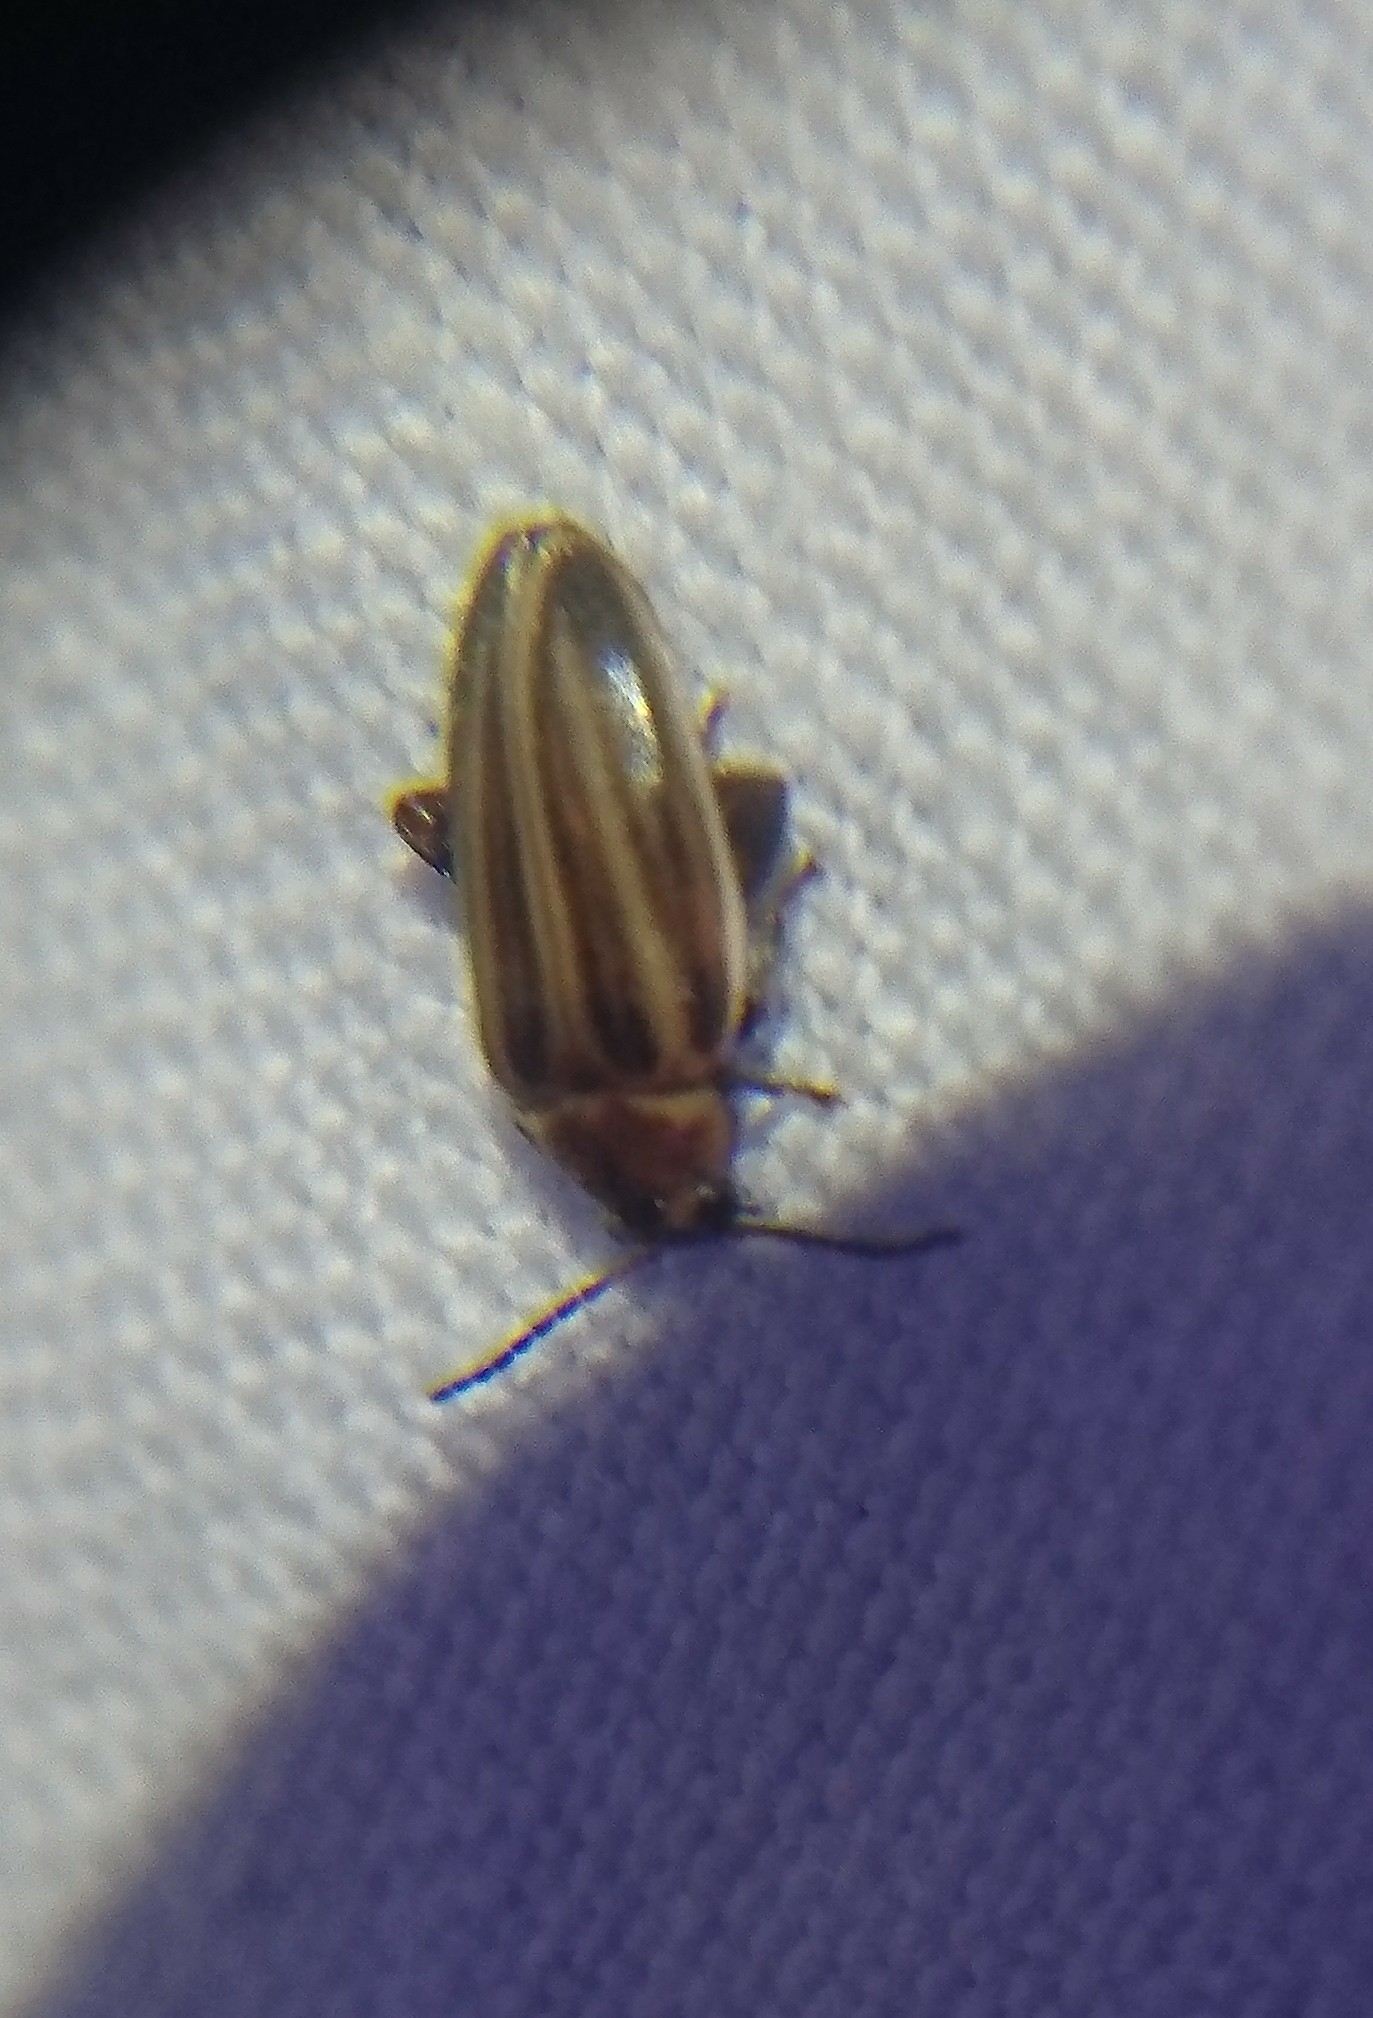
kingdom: Animalia
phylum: Arthropoda
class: Insecta
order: Coleoptera
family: Scirtidae
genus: Scirtes
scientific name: Scirtes oblongus
